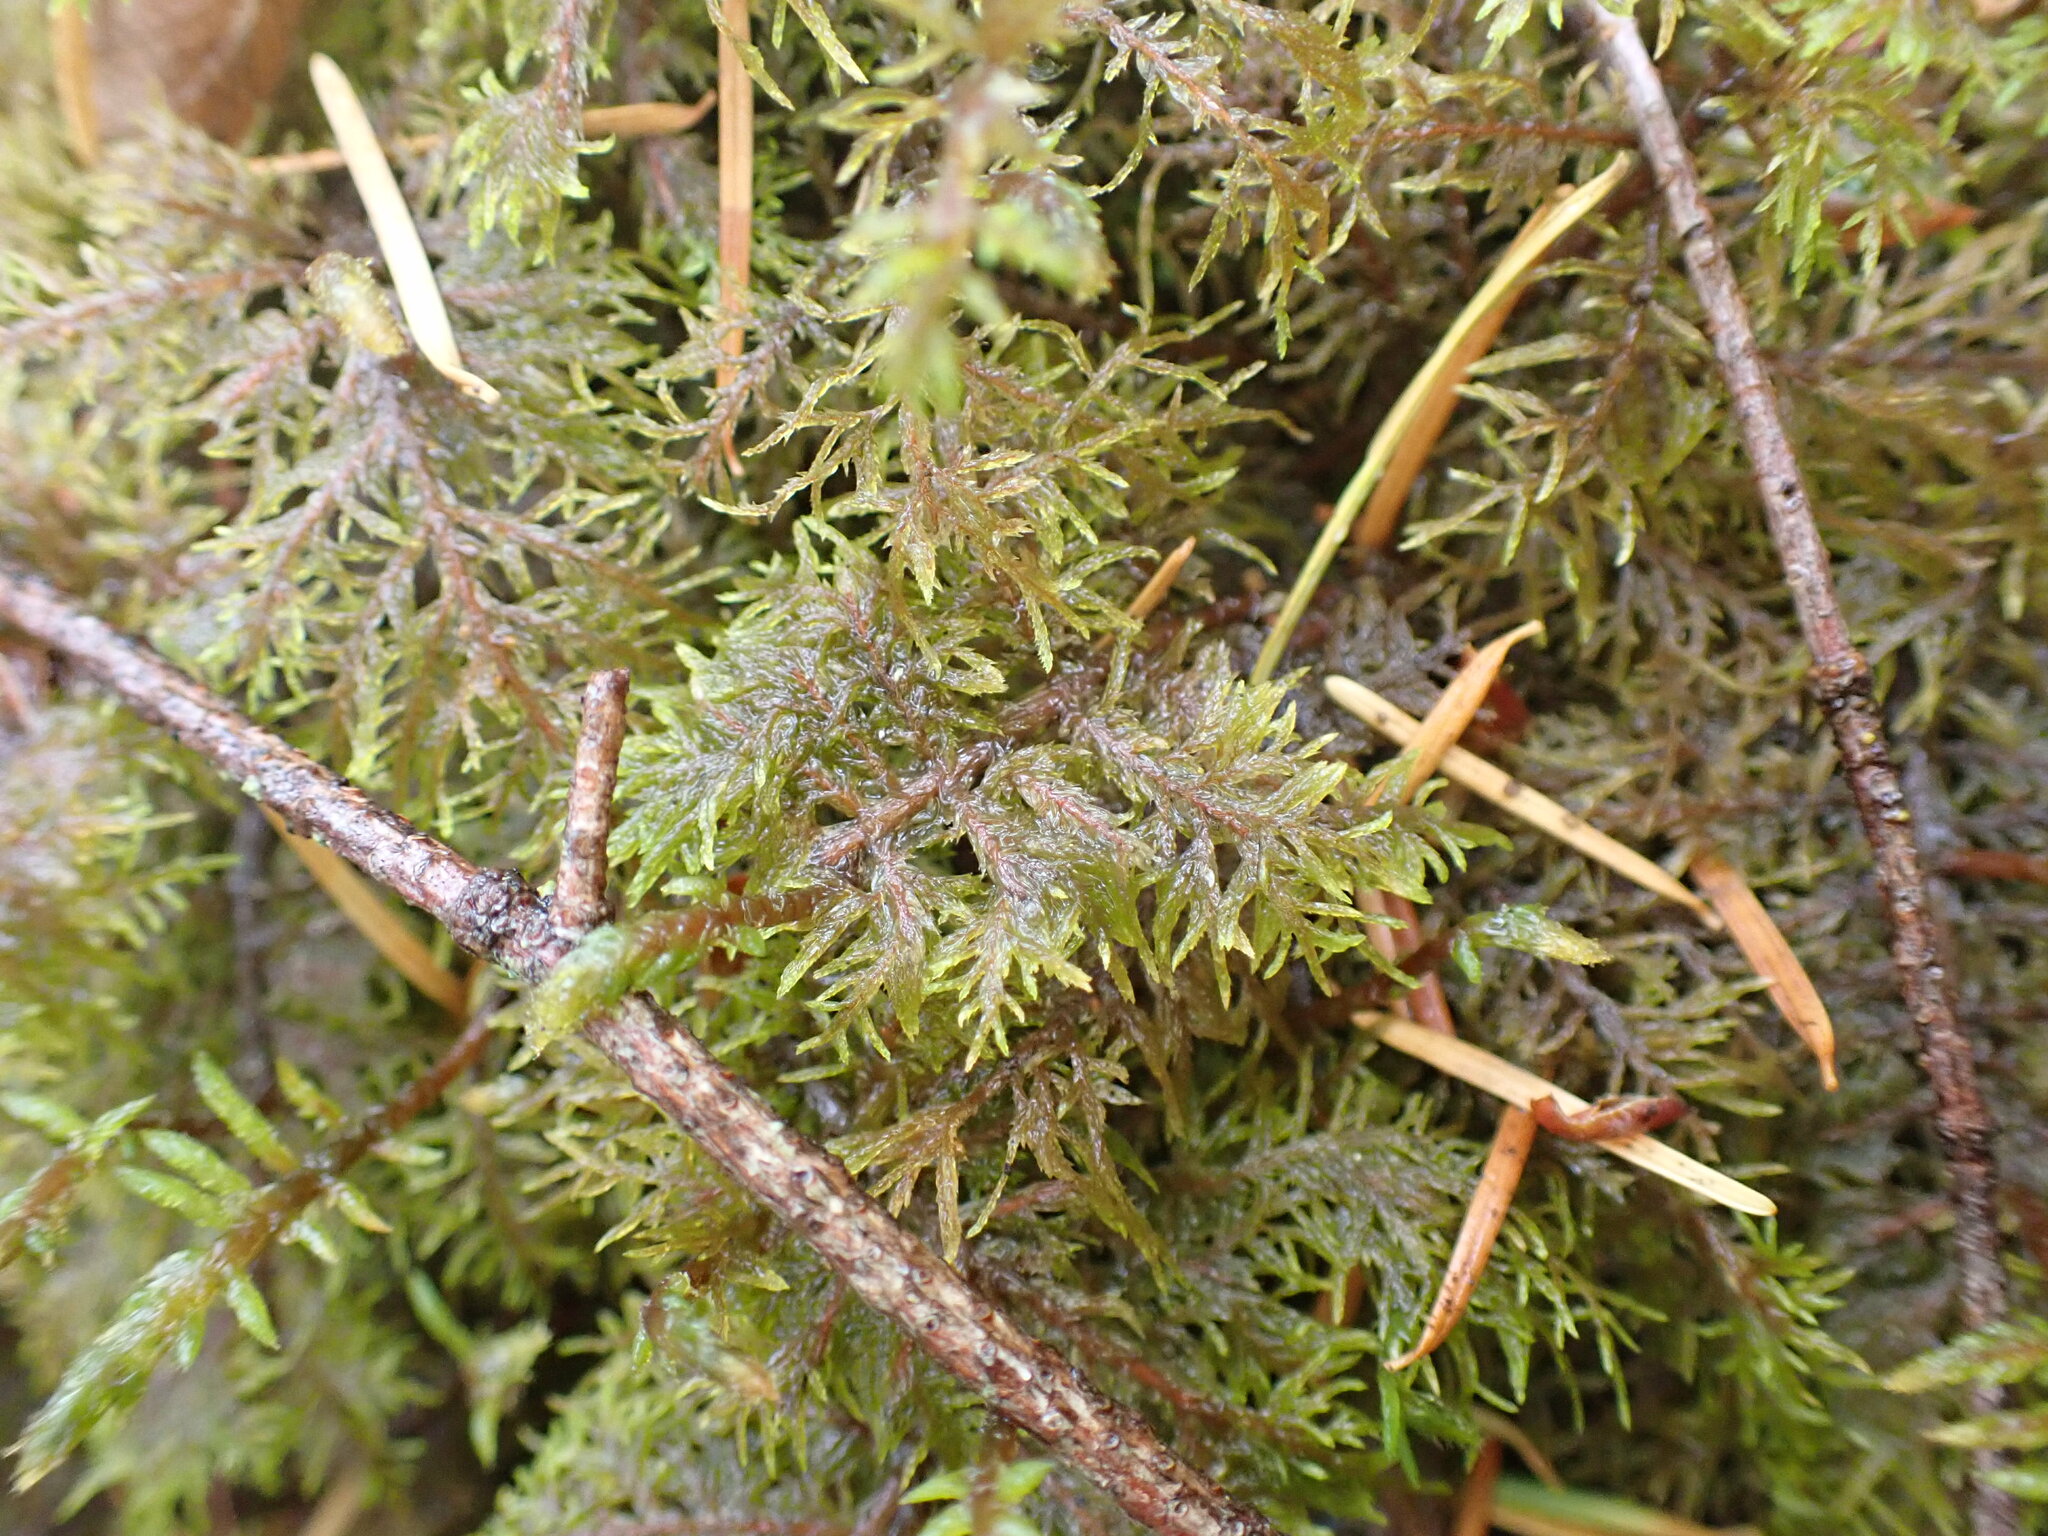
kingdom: Plantae
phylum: Bryophyta
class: Bryopsida
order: Hypnales
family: Hylocomiaceae
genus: Hylocomium
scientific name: Hylocomium splendens
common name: Stairstep moss
